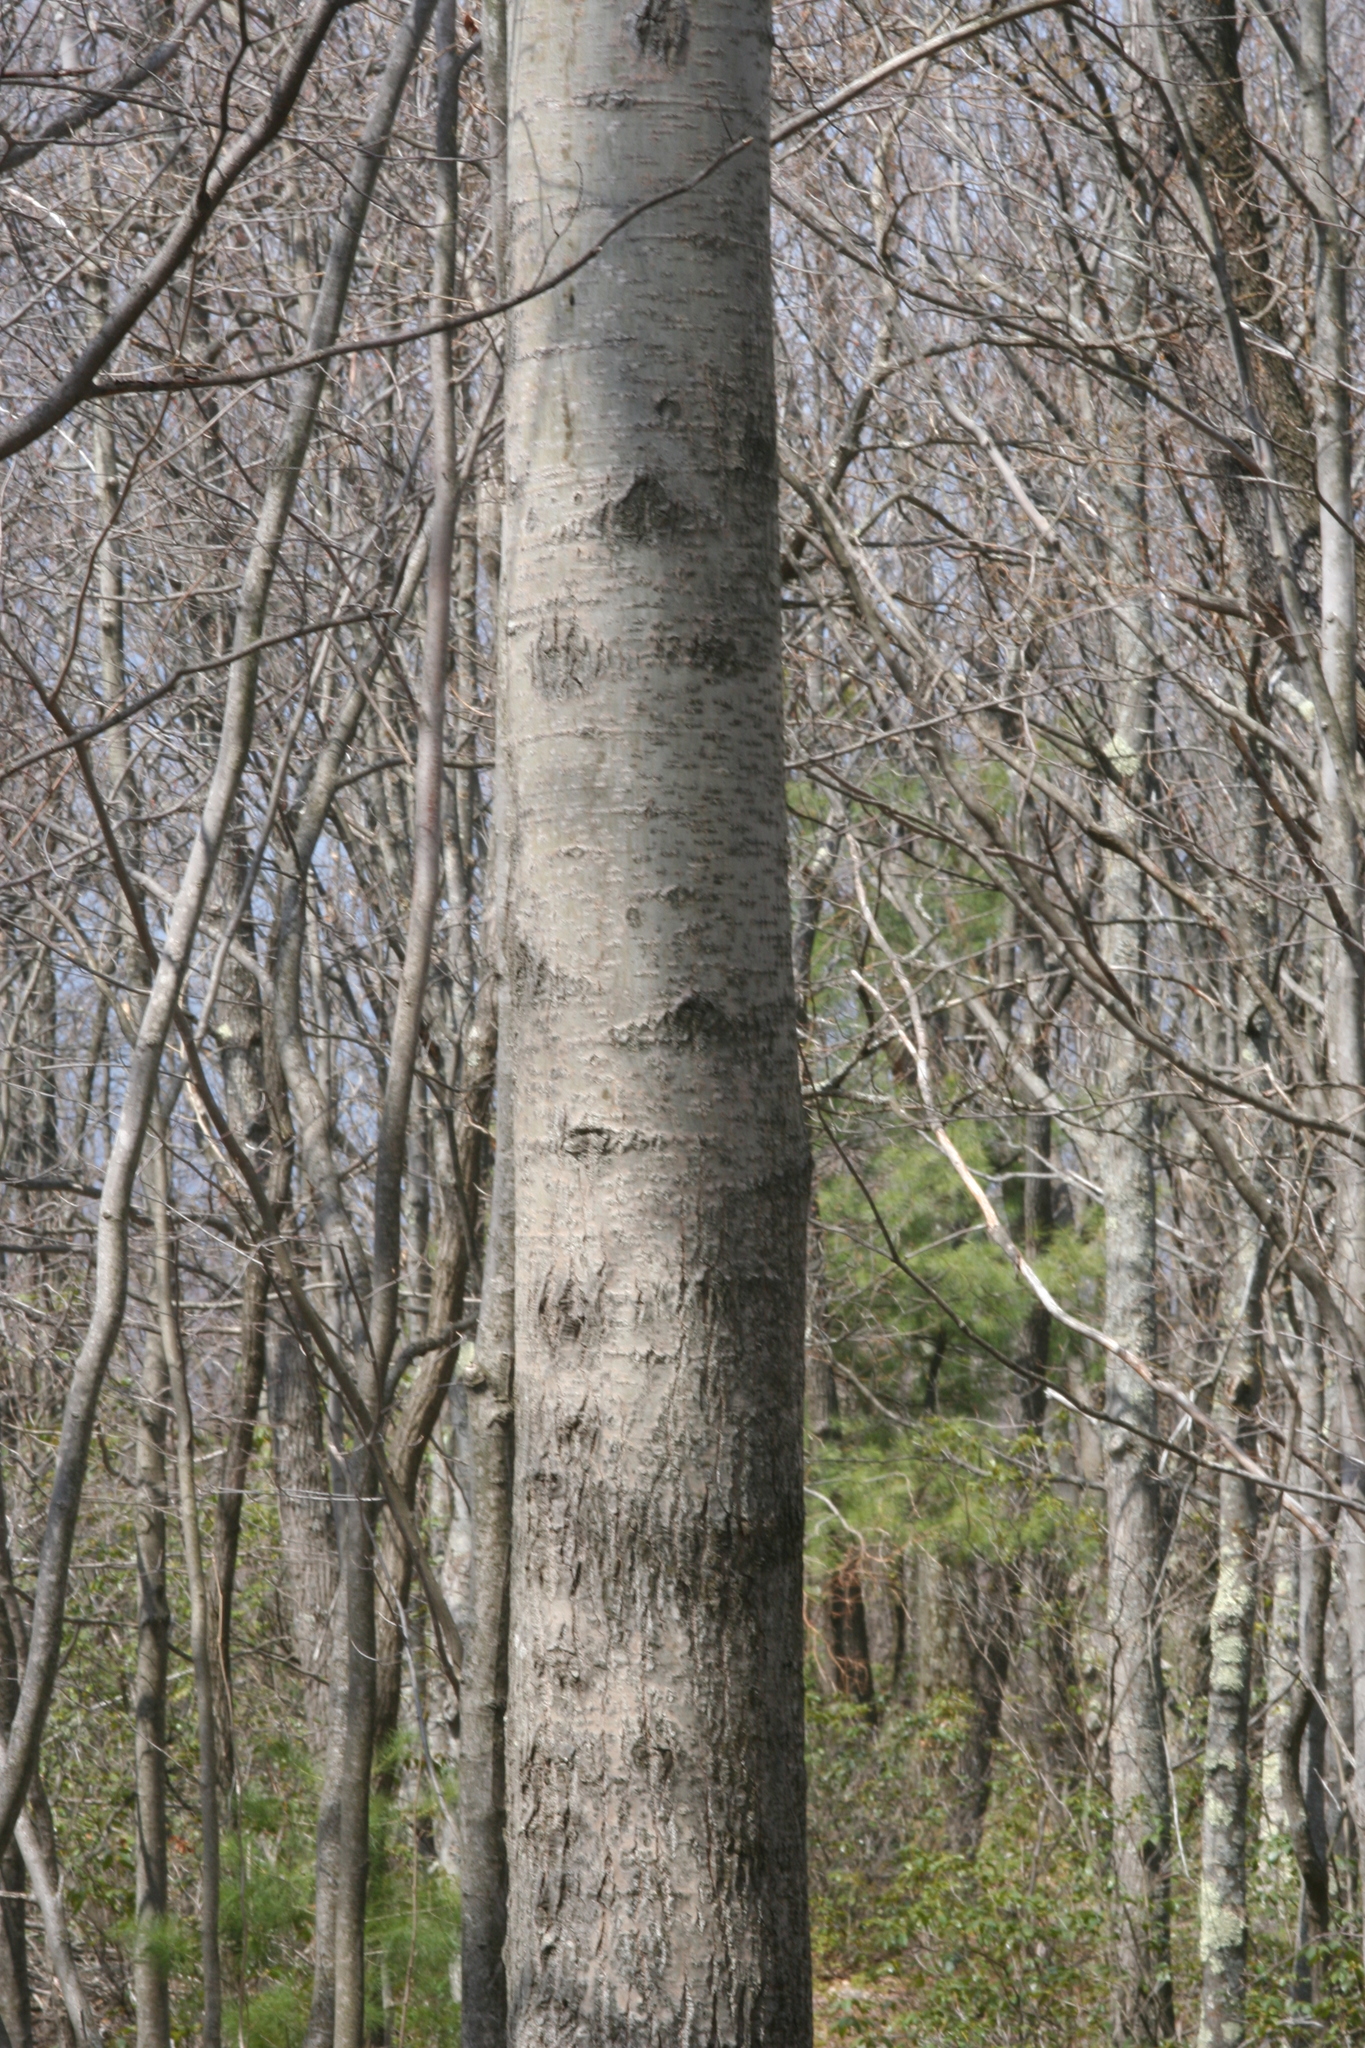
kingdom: Plantae
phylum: Tracheophyta
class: Magnoliopsida
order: Malpighiales
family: Salicaceae
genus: Populus
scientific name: Populus grandidentata
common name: Bigtooth aspen
